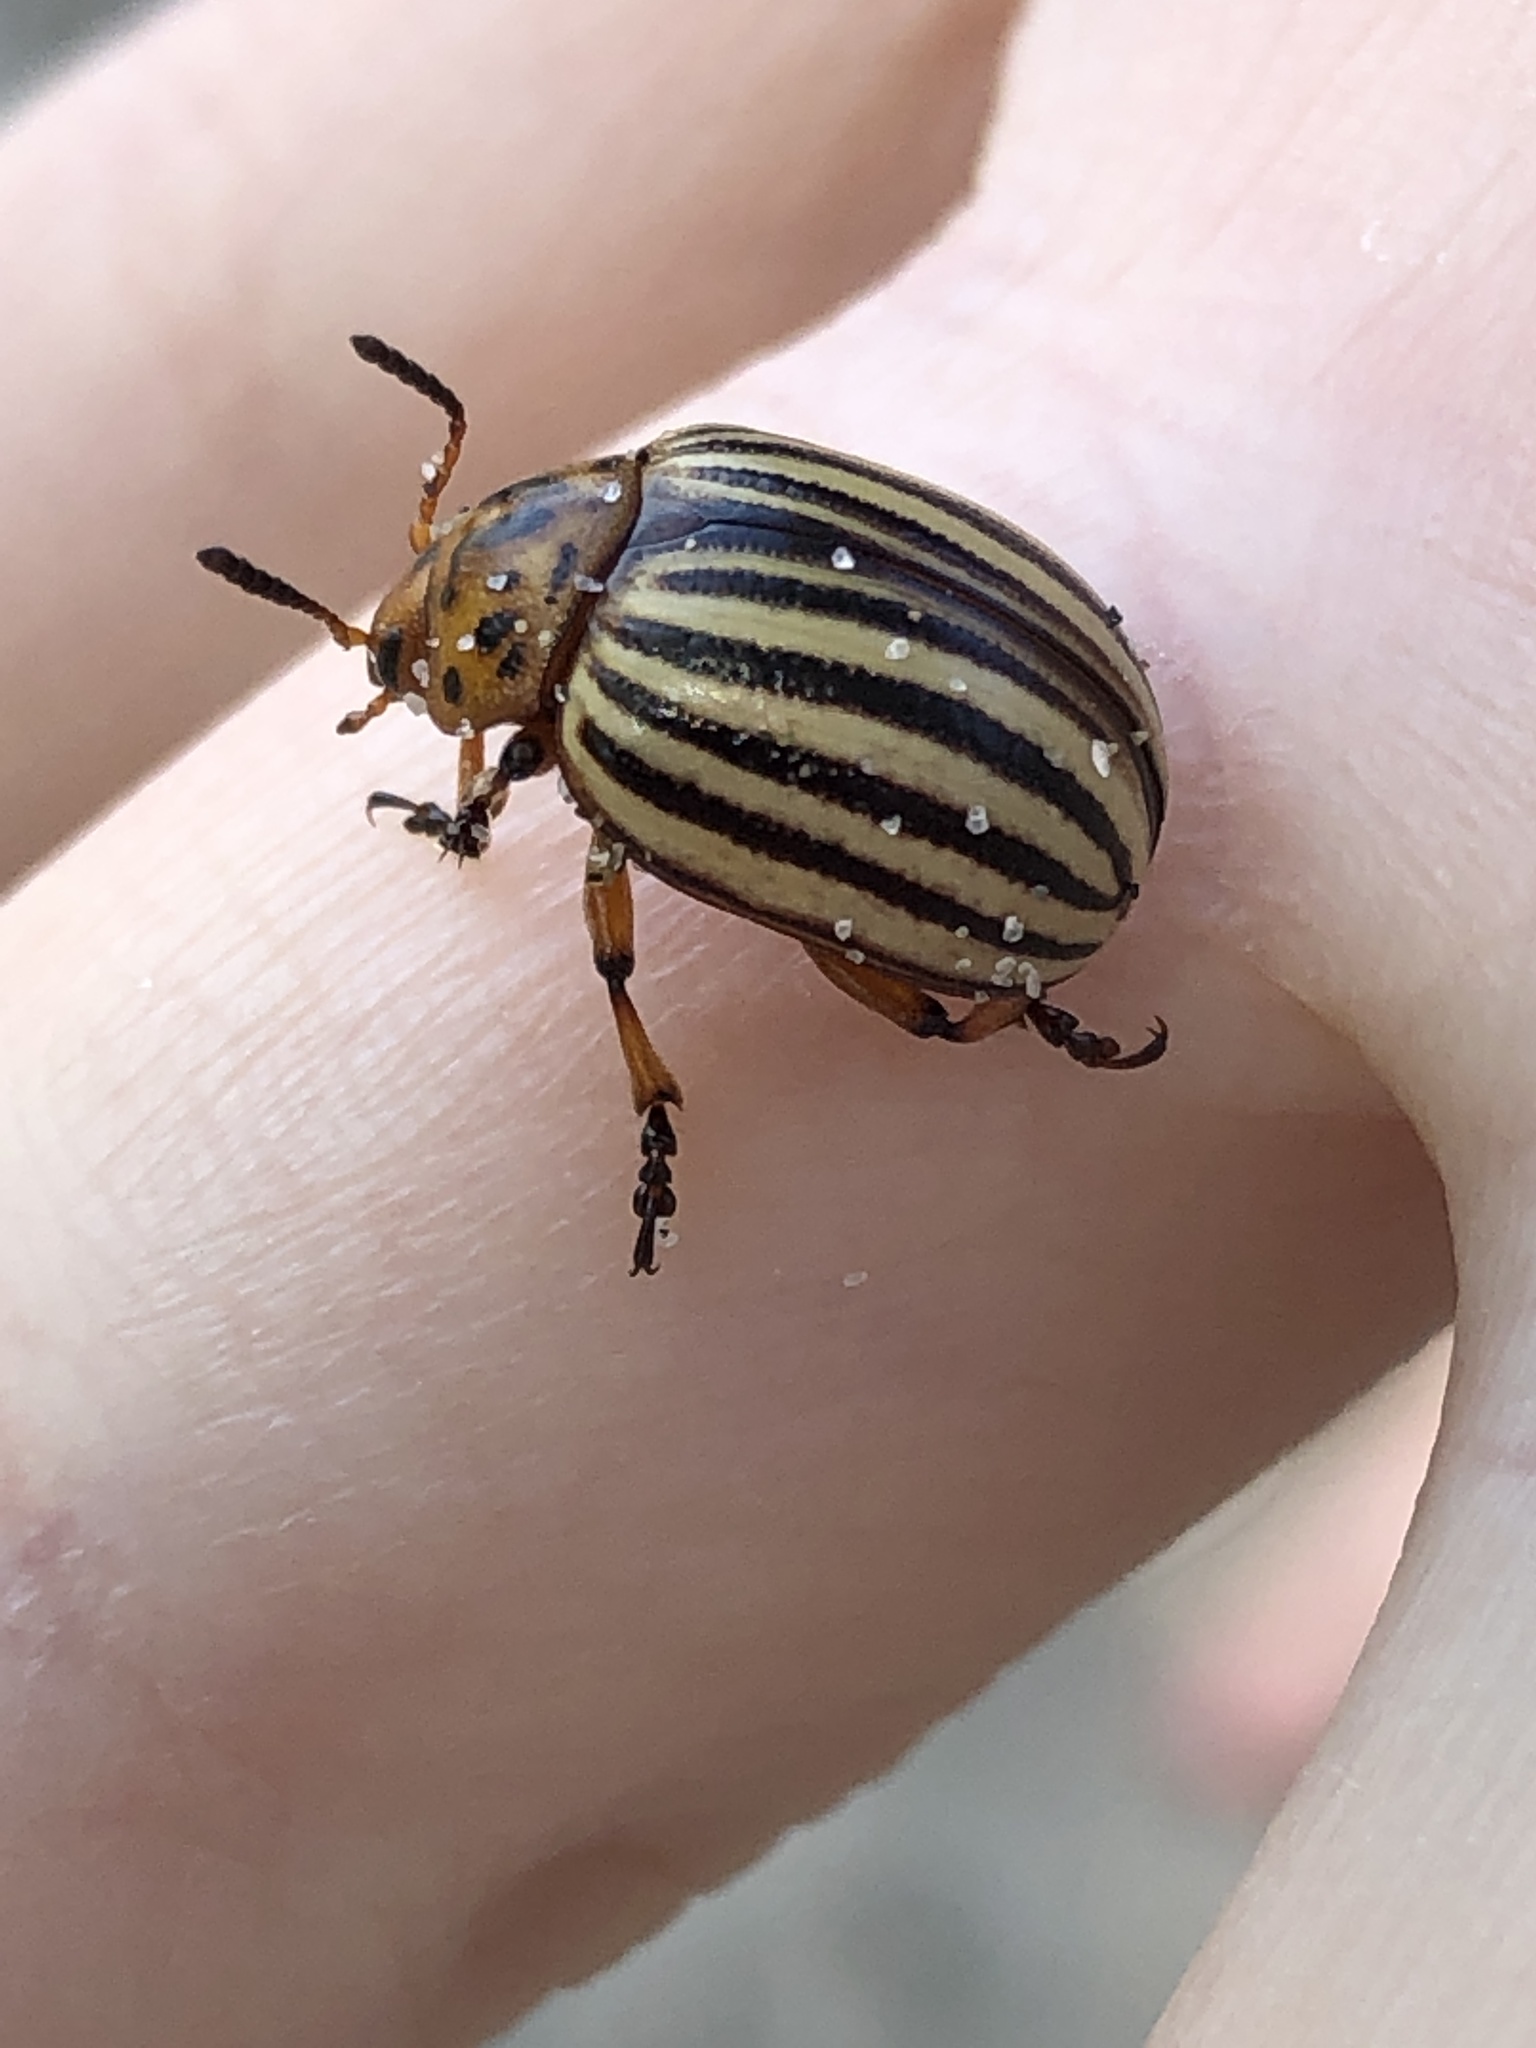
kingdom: Animalia
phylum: Arthropoda
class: Insecta
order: Coleoptera
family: Chrysomelidae
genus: Leptinotarsa
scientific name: Leptinotarsa decemlineata
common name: Colorado potato beetle
